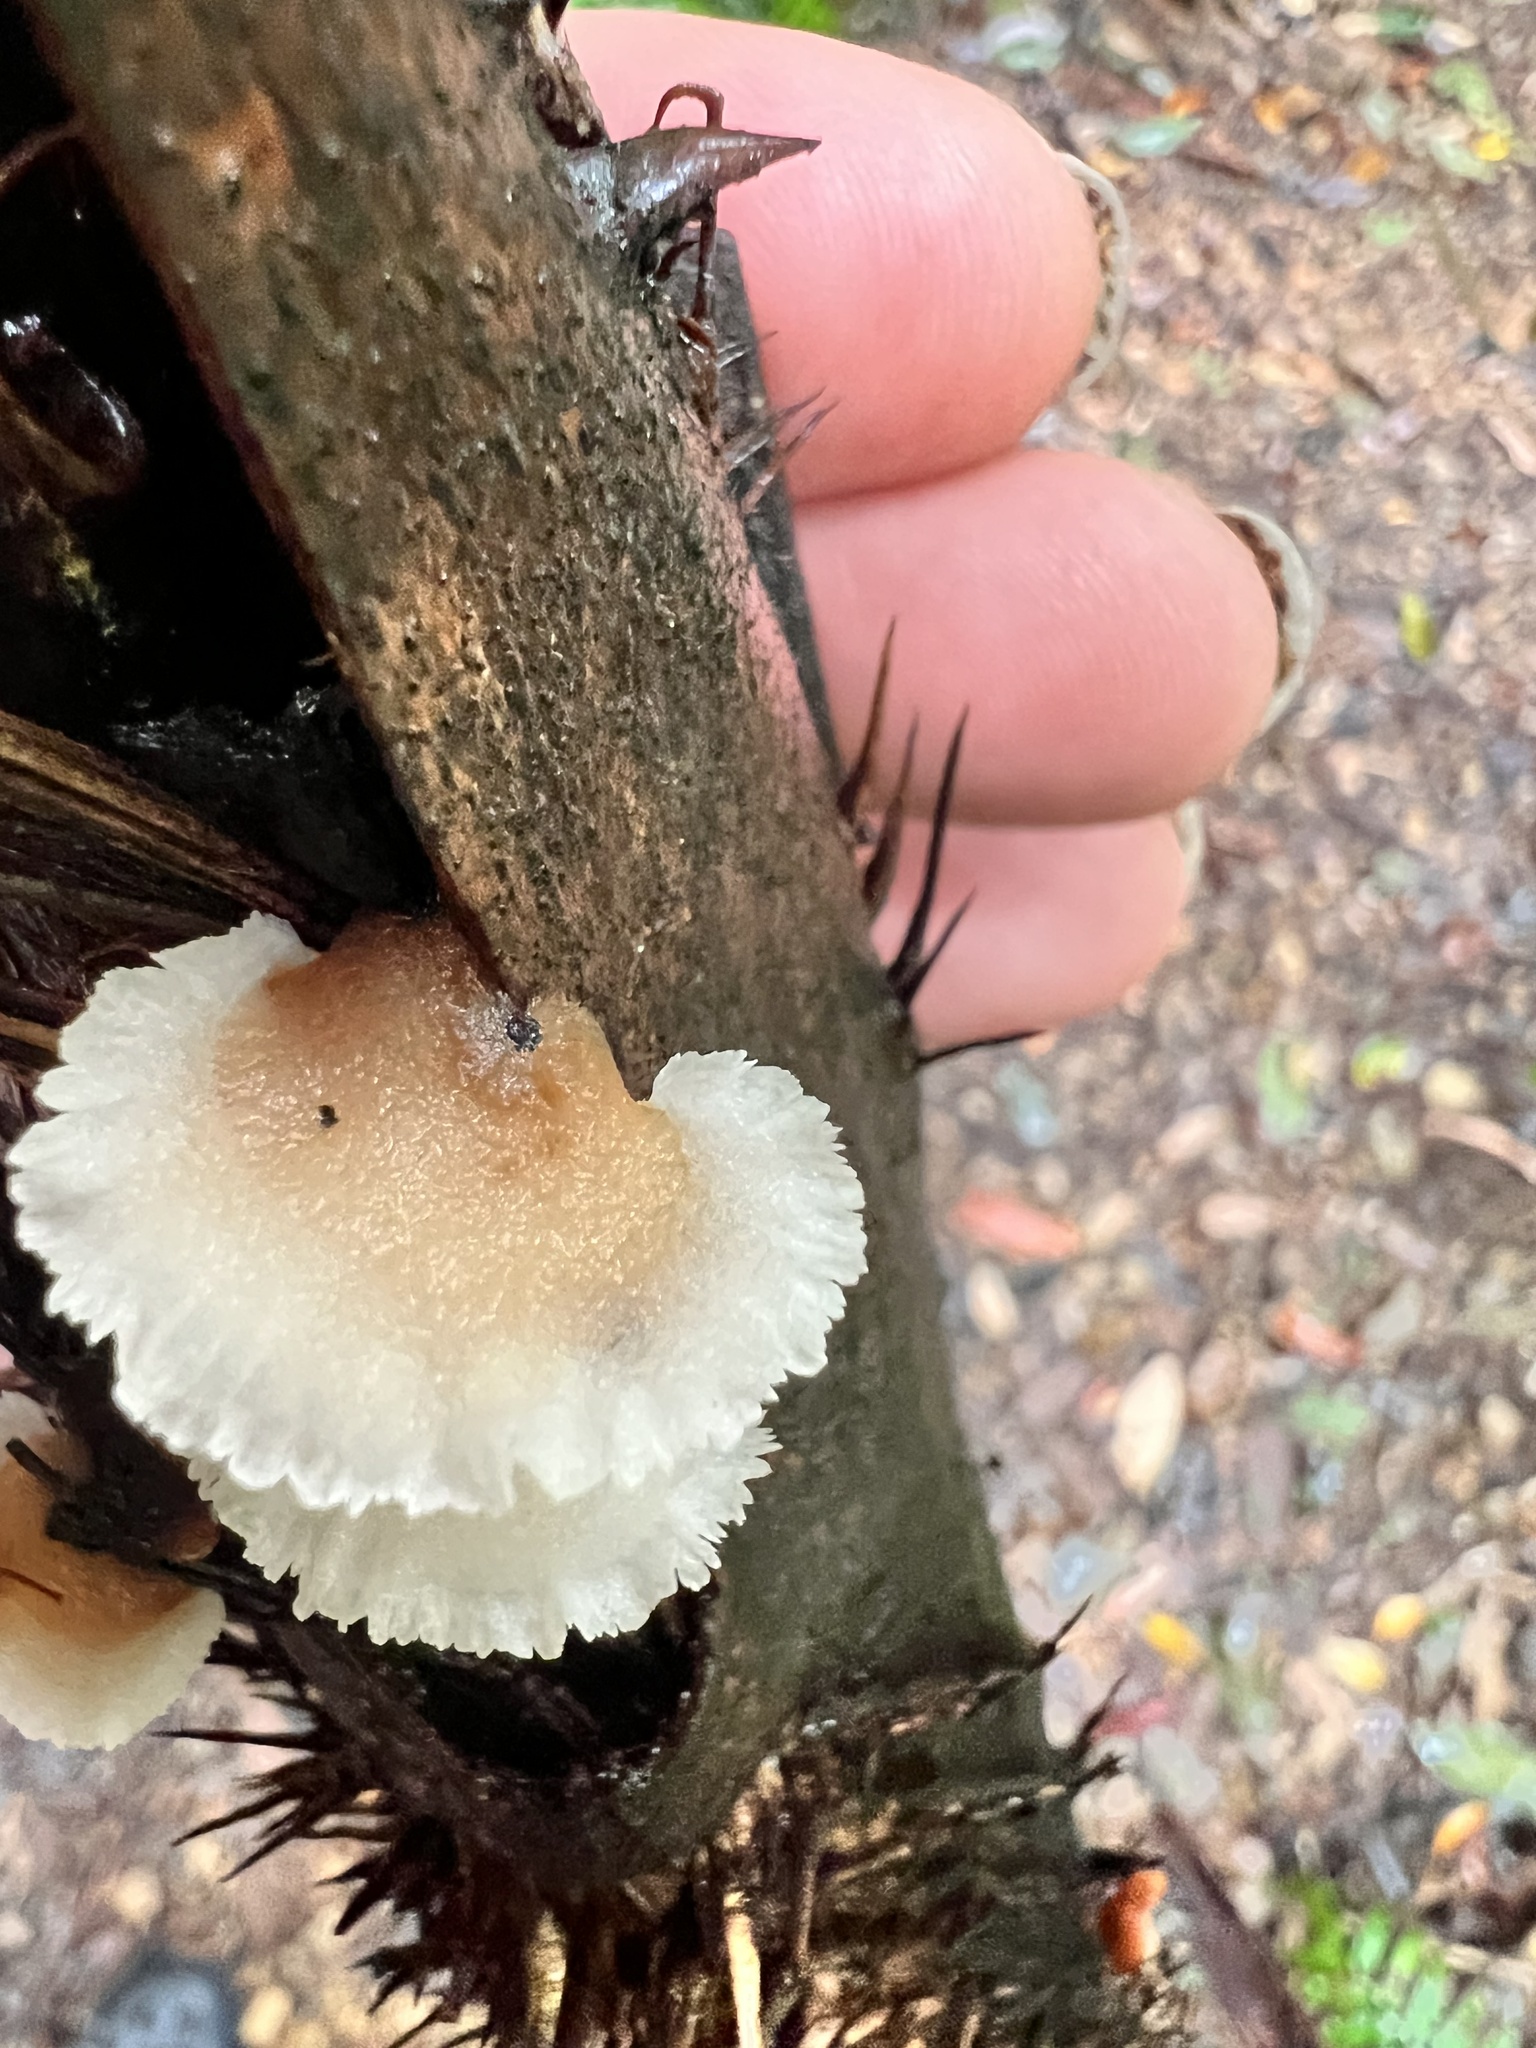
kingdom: Fungi
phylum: Basidiomycota
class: Agaricomycetes
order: Polyporales
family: Panaceae
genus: Cymatoderma
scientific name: Cymatoderma dendriticum
